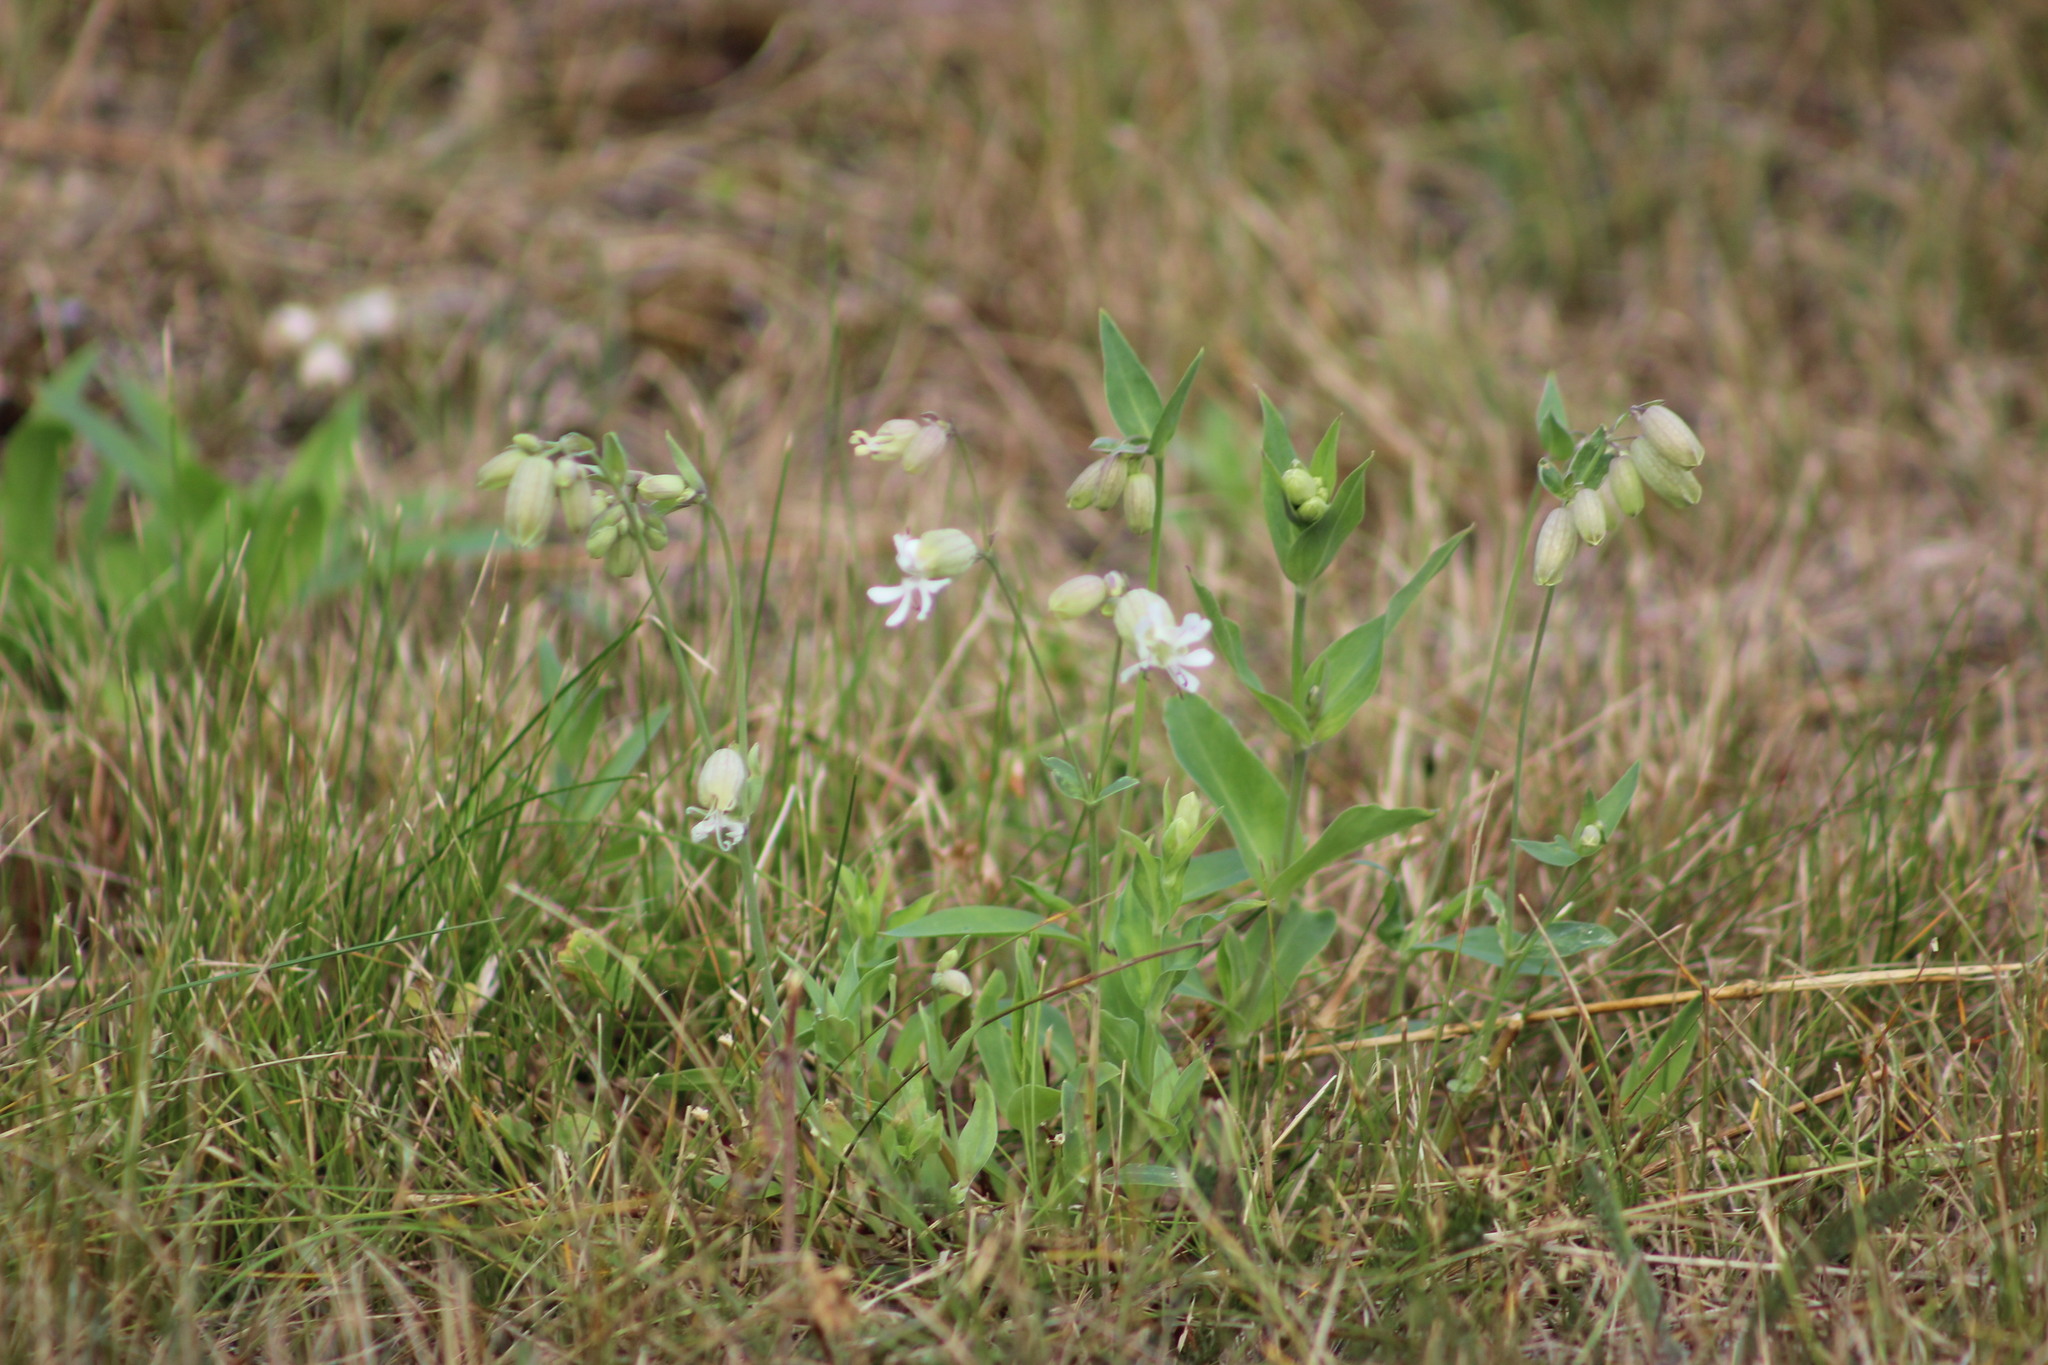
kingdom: Plantae
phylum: Tracheophyta
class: Magnoliopsida
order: Caryophyllales
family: Caryophyllaceae
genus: Silene
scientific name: Silene vulgaris
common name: Bladder campion
